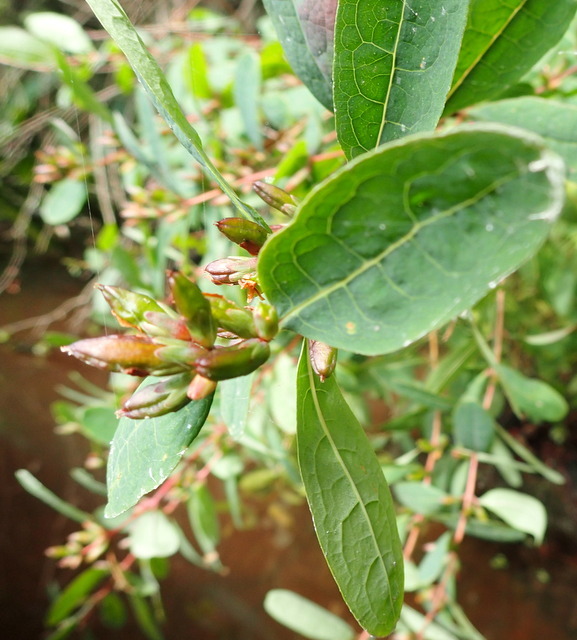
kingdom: Plantae
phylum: Tracheophyta
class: Magnoliopsida
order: Malpighiales
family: Hypericaceae
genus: Triadenum
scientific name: Triadenum walteri
